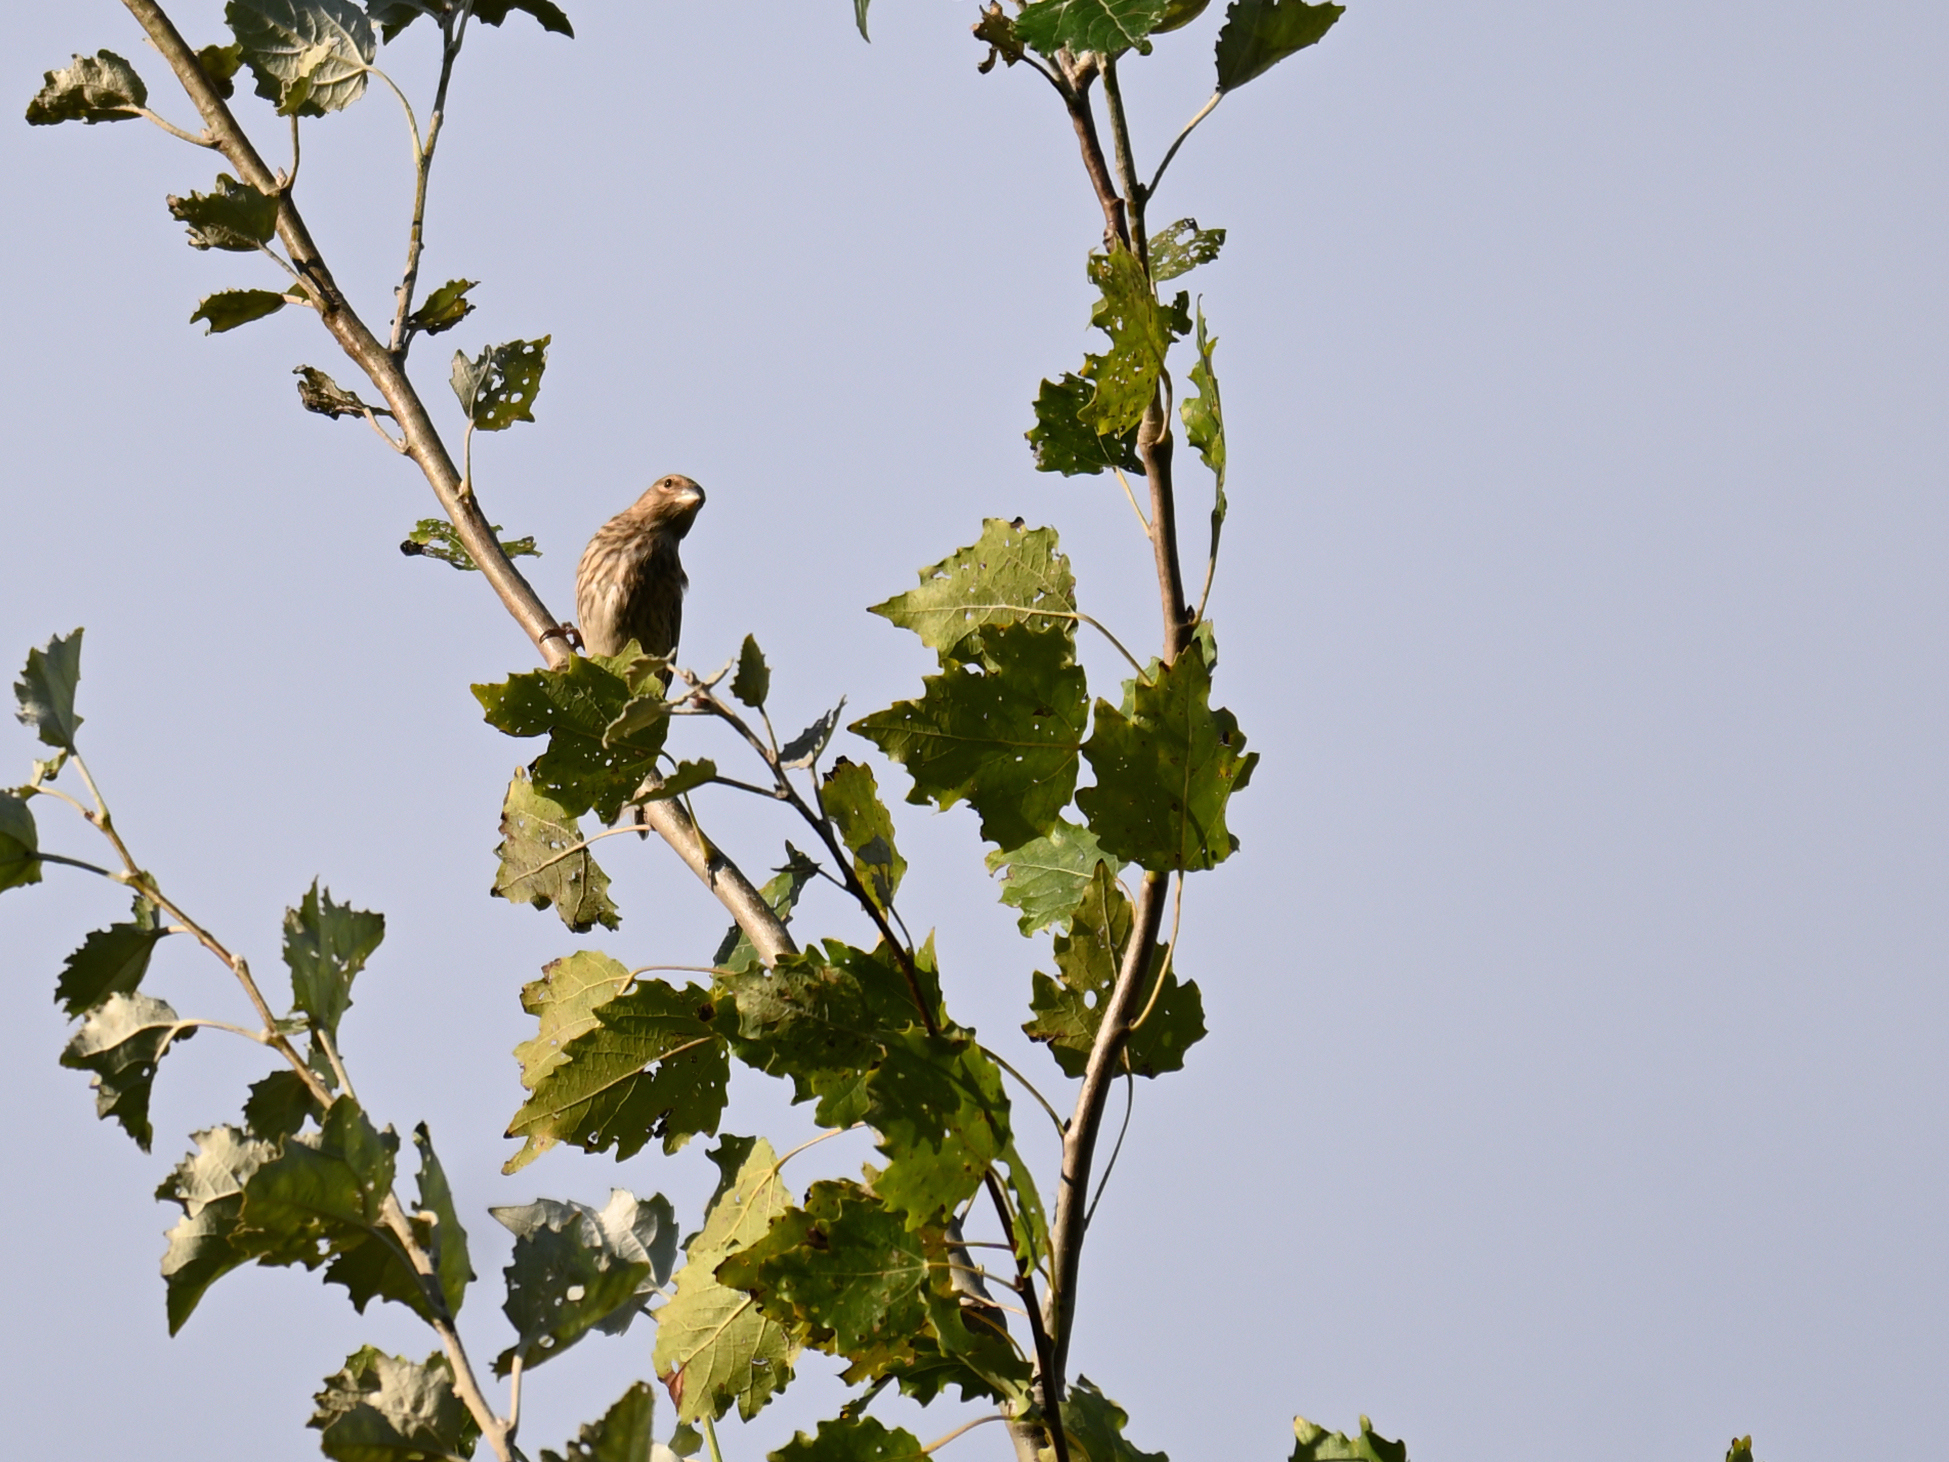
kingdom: Animalia
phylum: Chordata
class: Aves
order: Passeriformes
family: Fringillidae
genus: Linaria
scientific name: Linaria cannabina
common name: Common linnet
